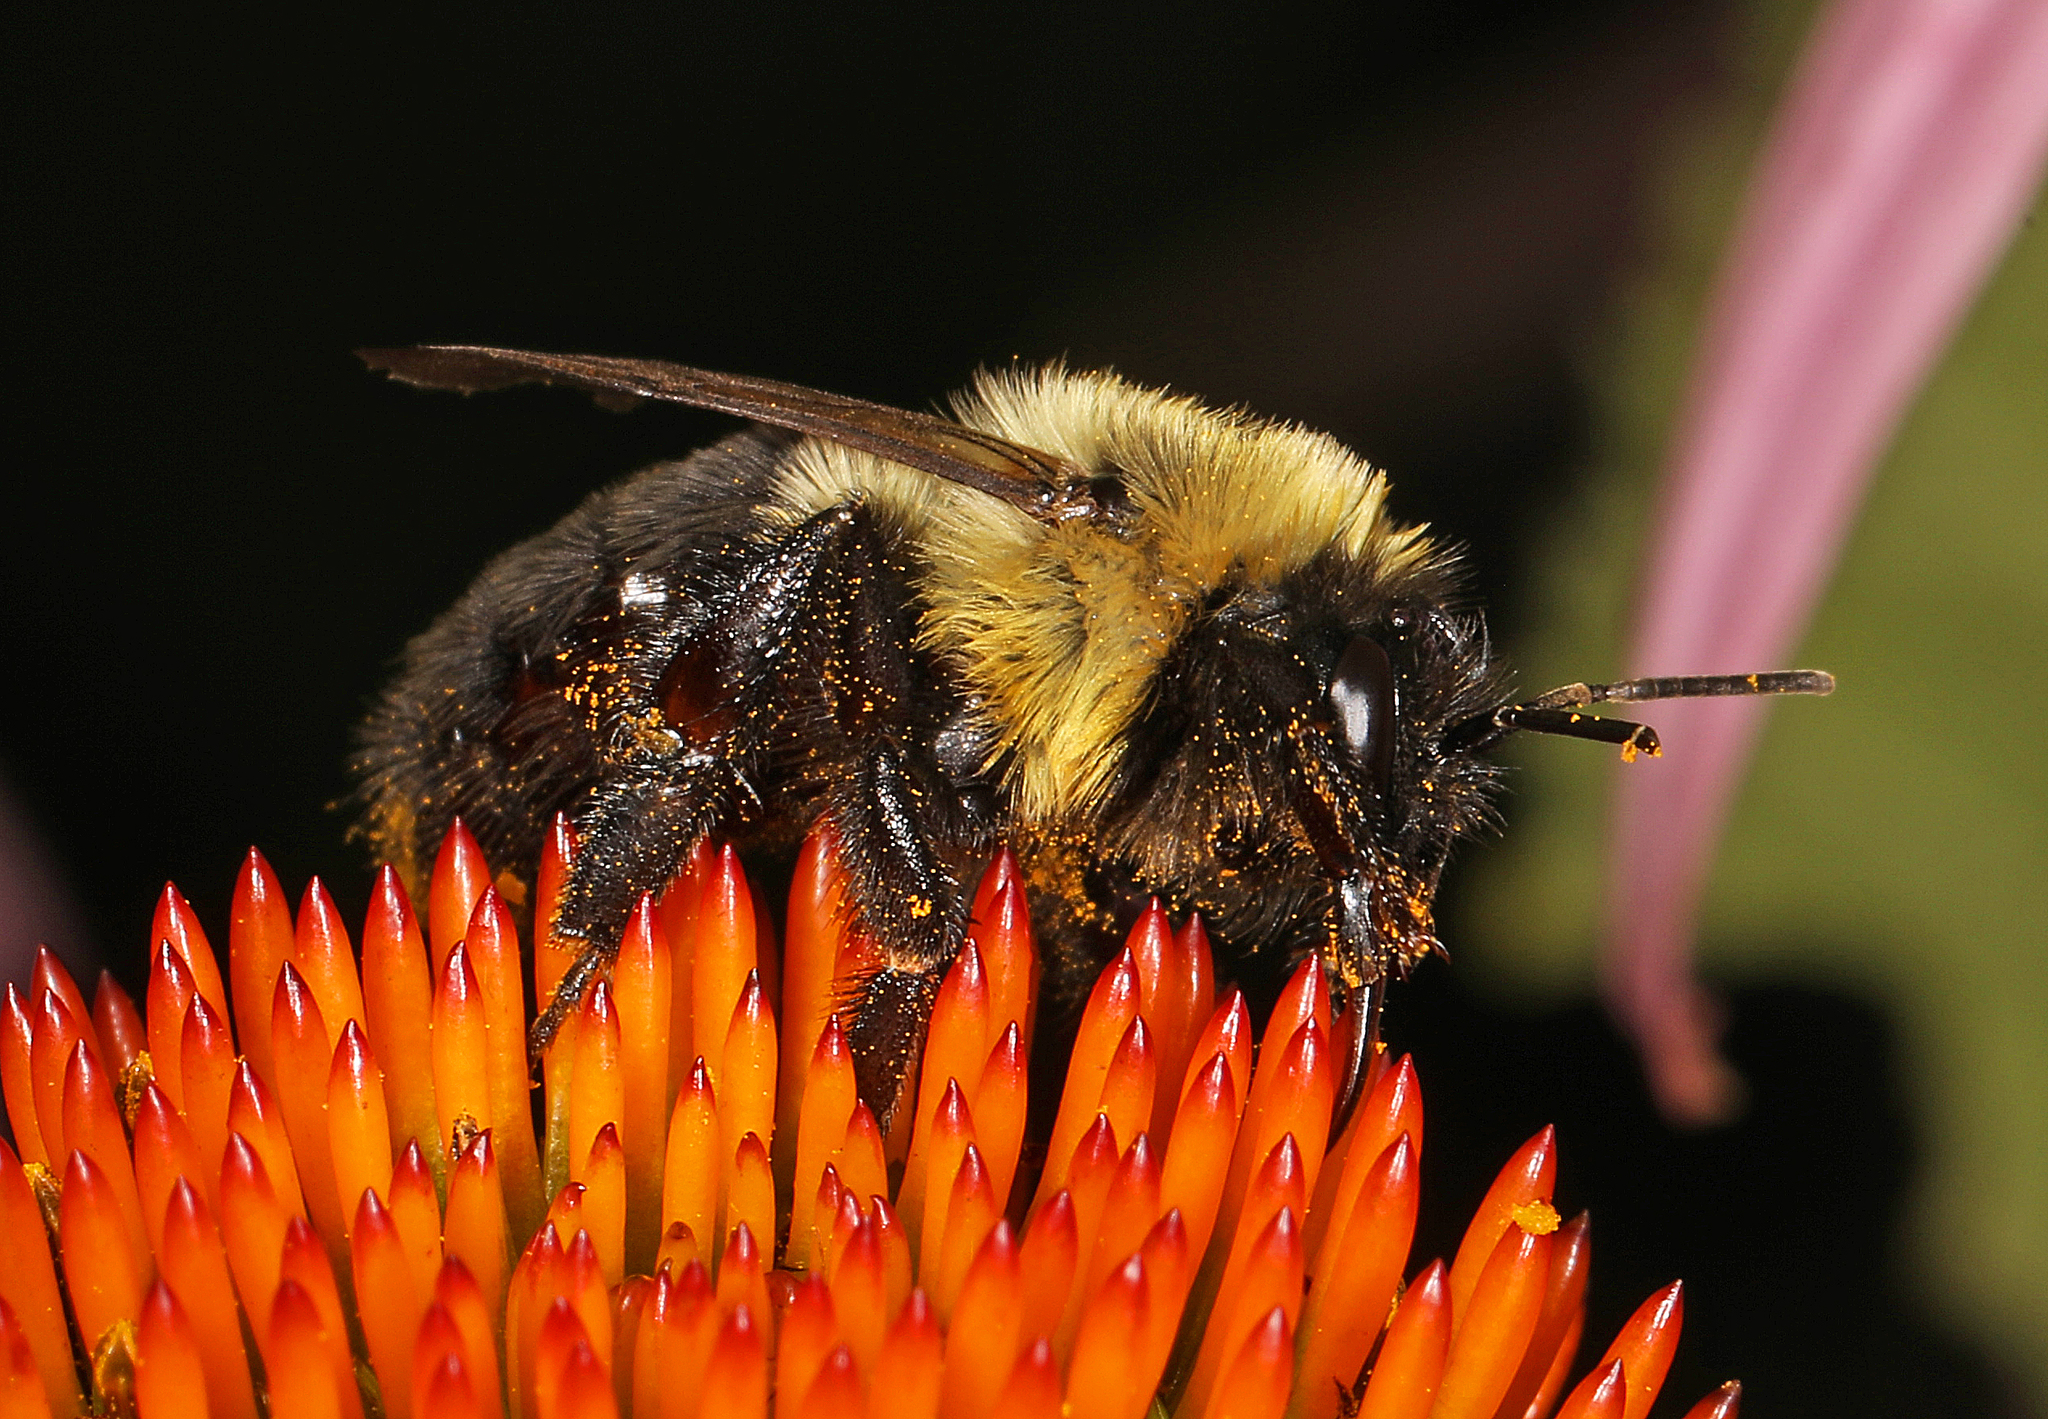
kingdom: Animalia
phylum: Arthropoda
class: Insecta
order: Hymenoptera
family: Apidae
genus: Bombus
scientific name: Bombus impatiens
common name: Common eastern bumble bee
